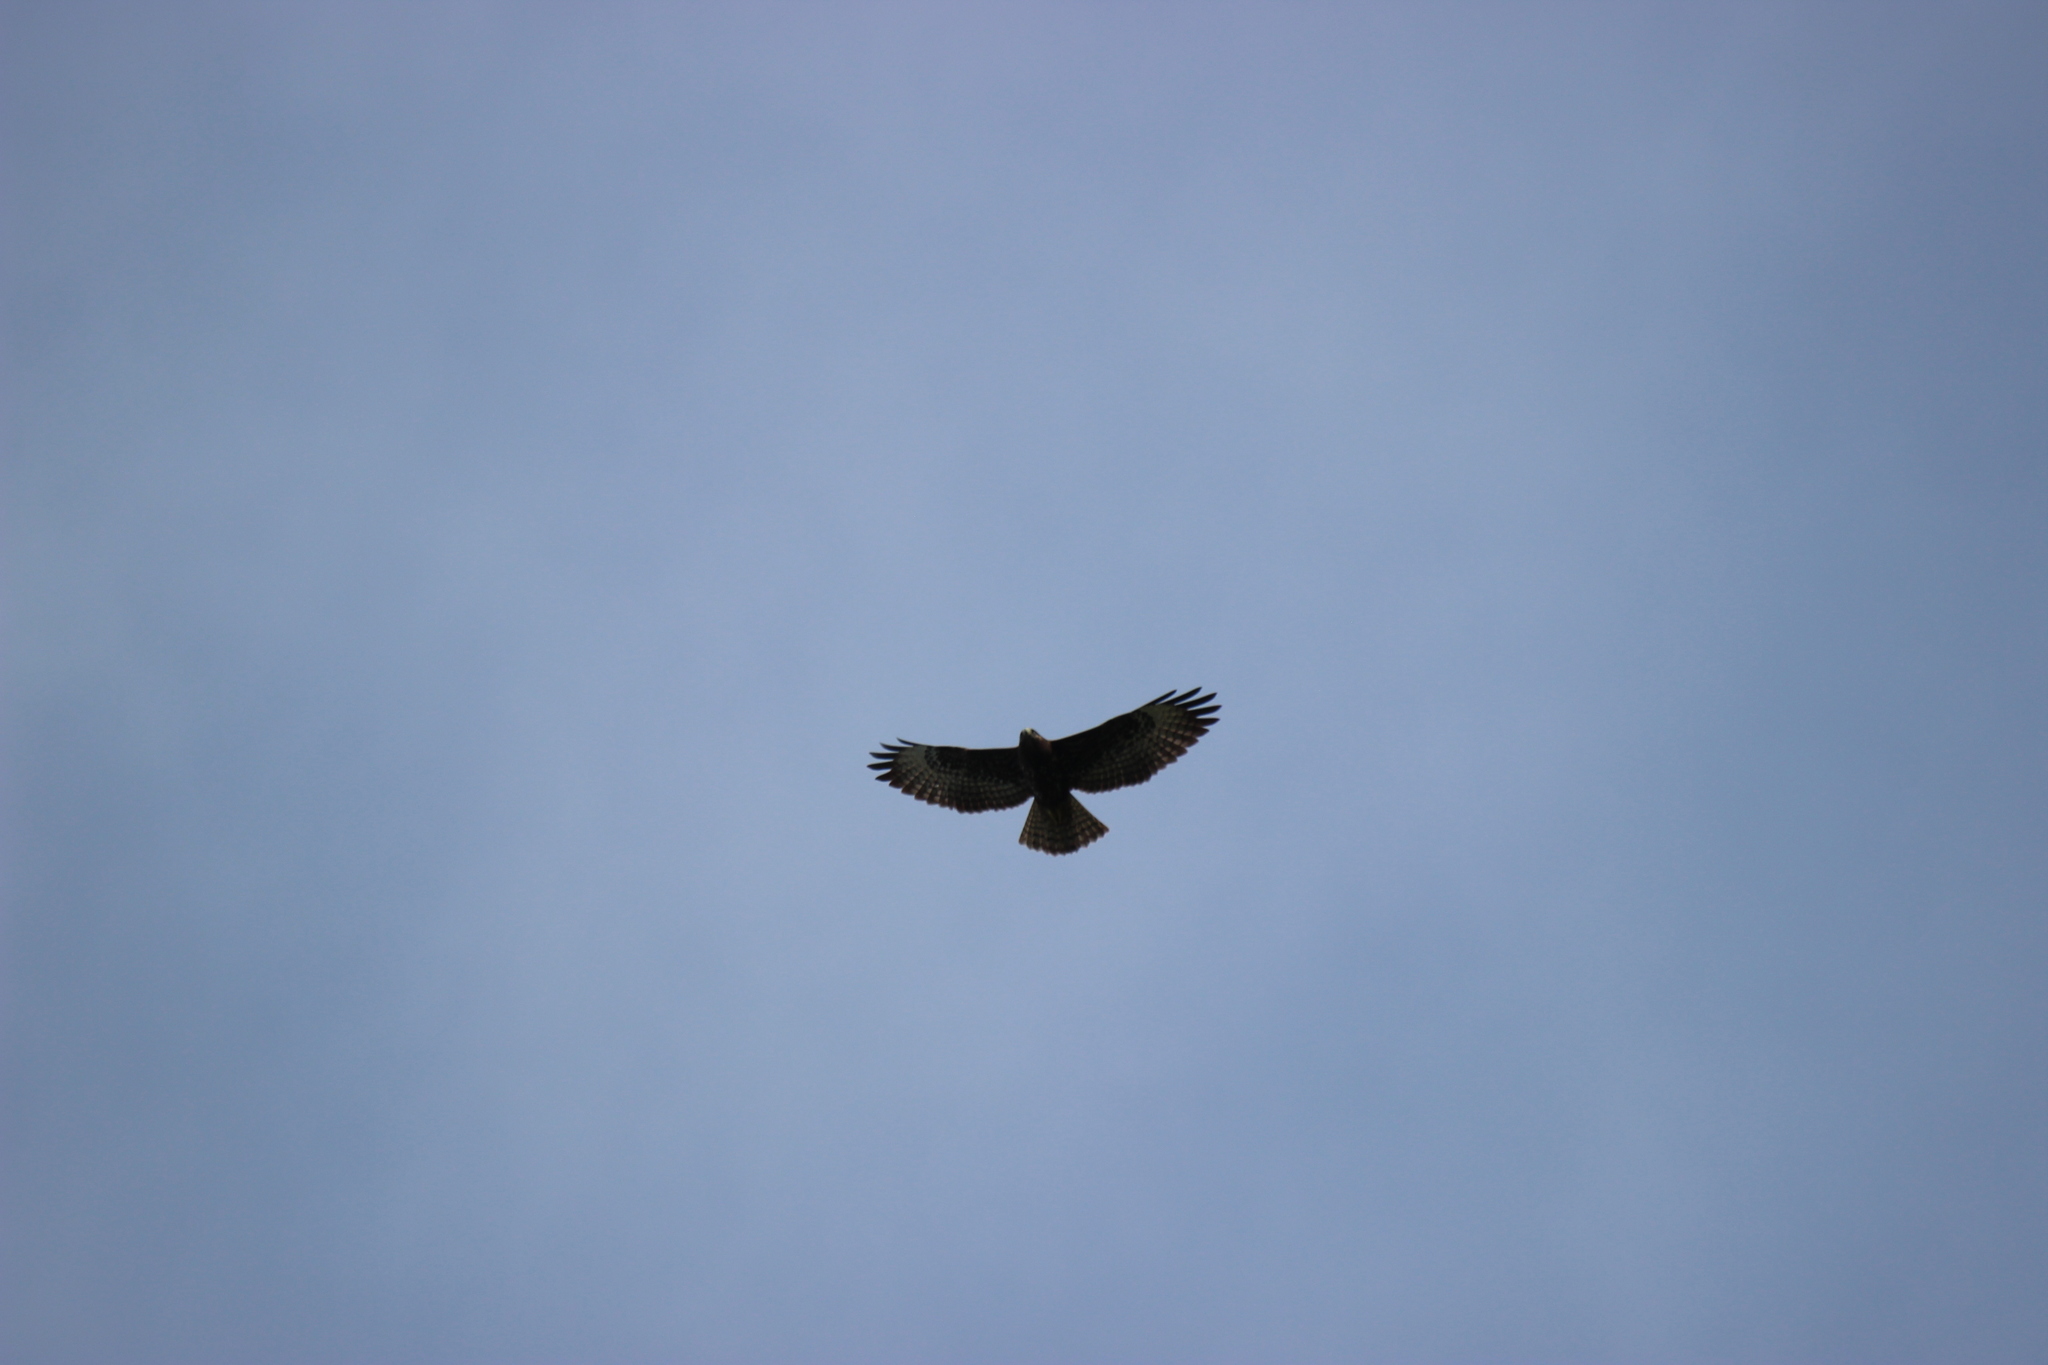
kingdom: Animalia
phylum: Chordata
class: Aves
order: Accipitriformes
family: Accipitridae
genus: Buteo
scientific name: Buteo brachyurus
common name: Short-tailed hawk
